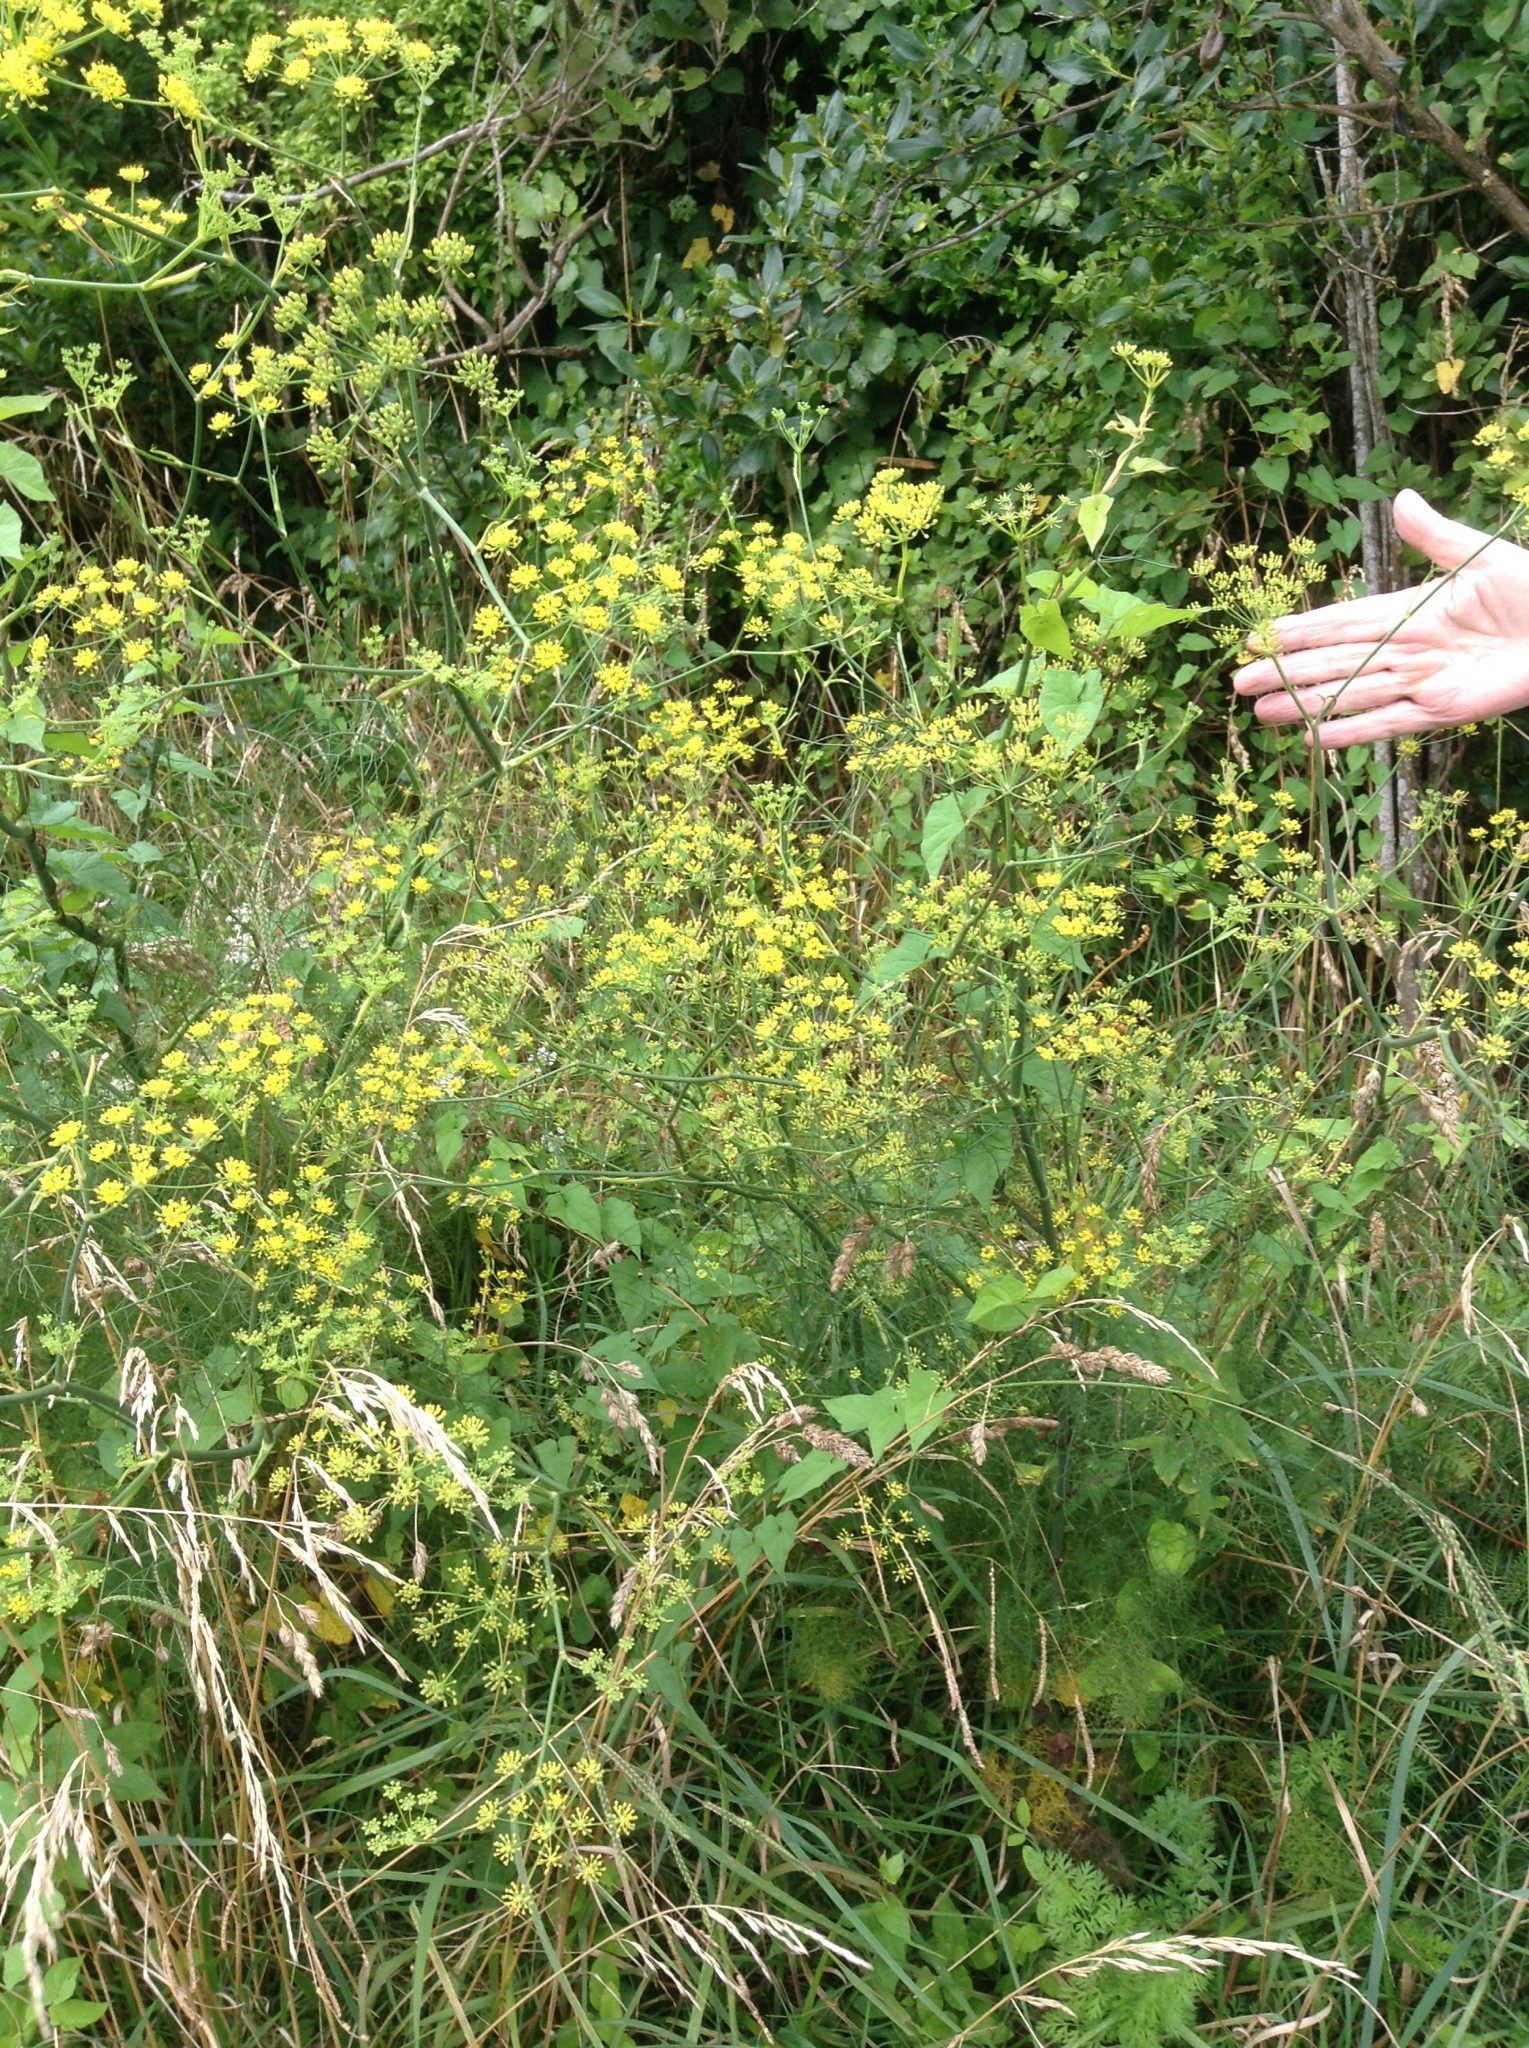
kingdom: Plantae
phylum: Tracheophyta
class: Magnoliopsida
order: Apiales
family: Apiaceae
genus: Foeniculum
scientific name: Foeniculum vulgare
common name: Fennel
